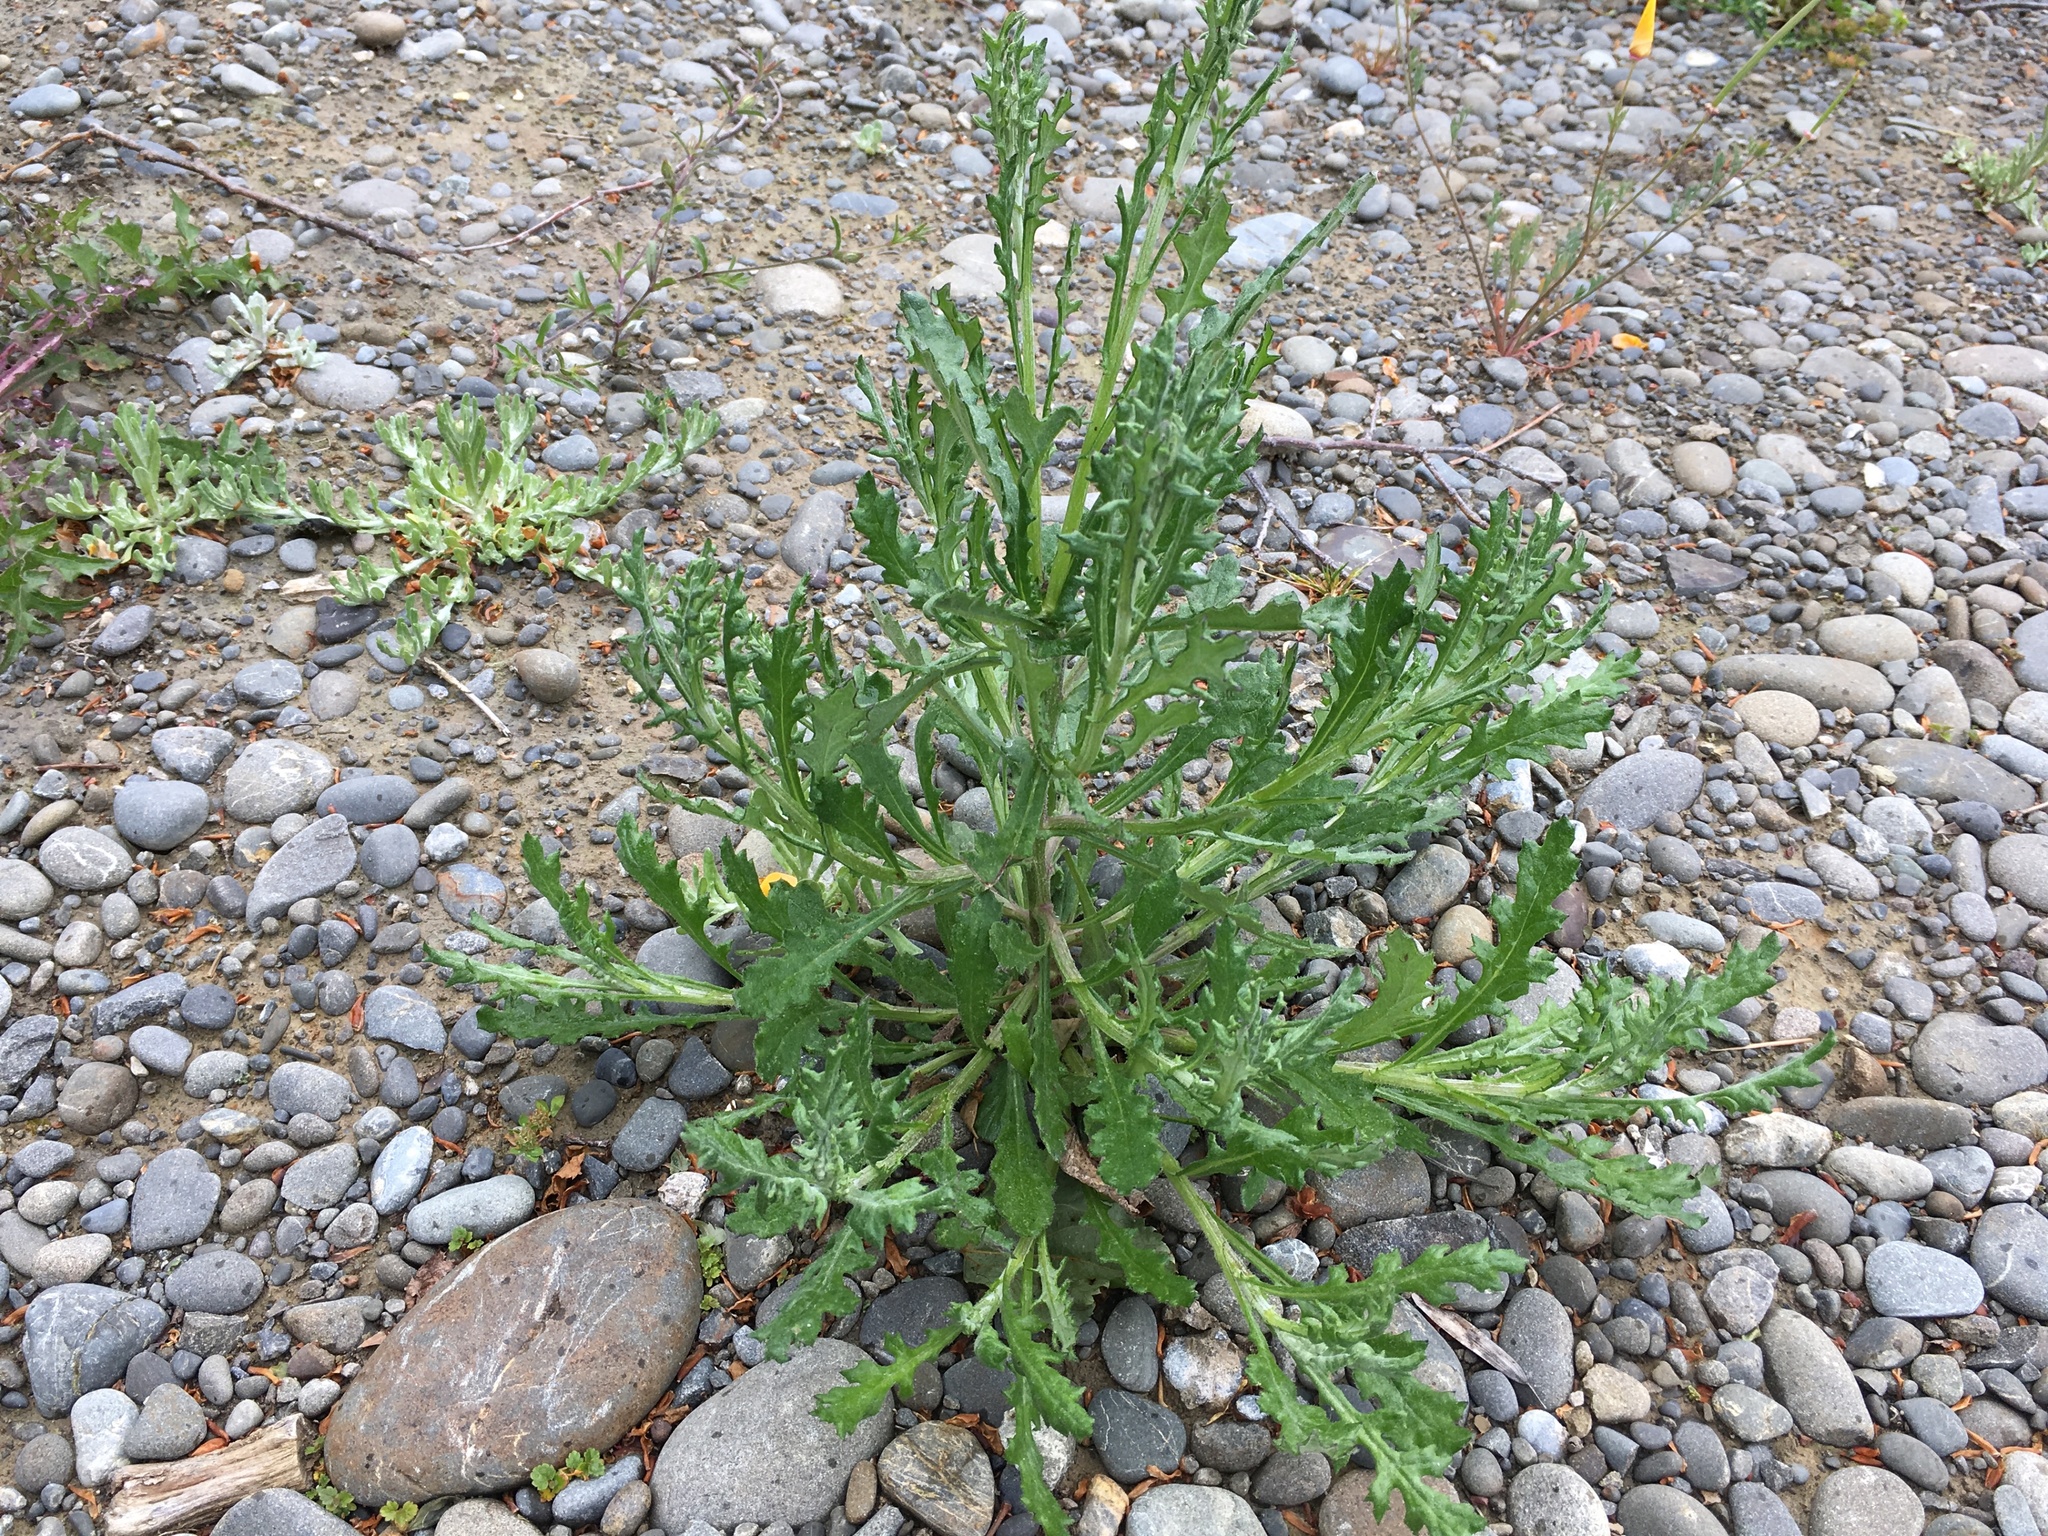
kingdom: Plantae
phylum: Tracheophyta
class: Magnoliopsida
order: Asterales
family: Asteraceae
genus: Senecio
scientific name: Senecio glomeratus
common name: Cutleaf burnweed
